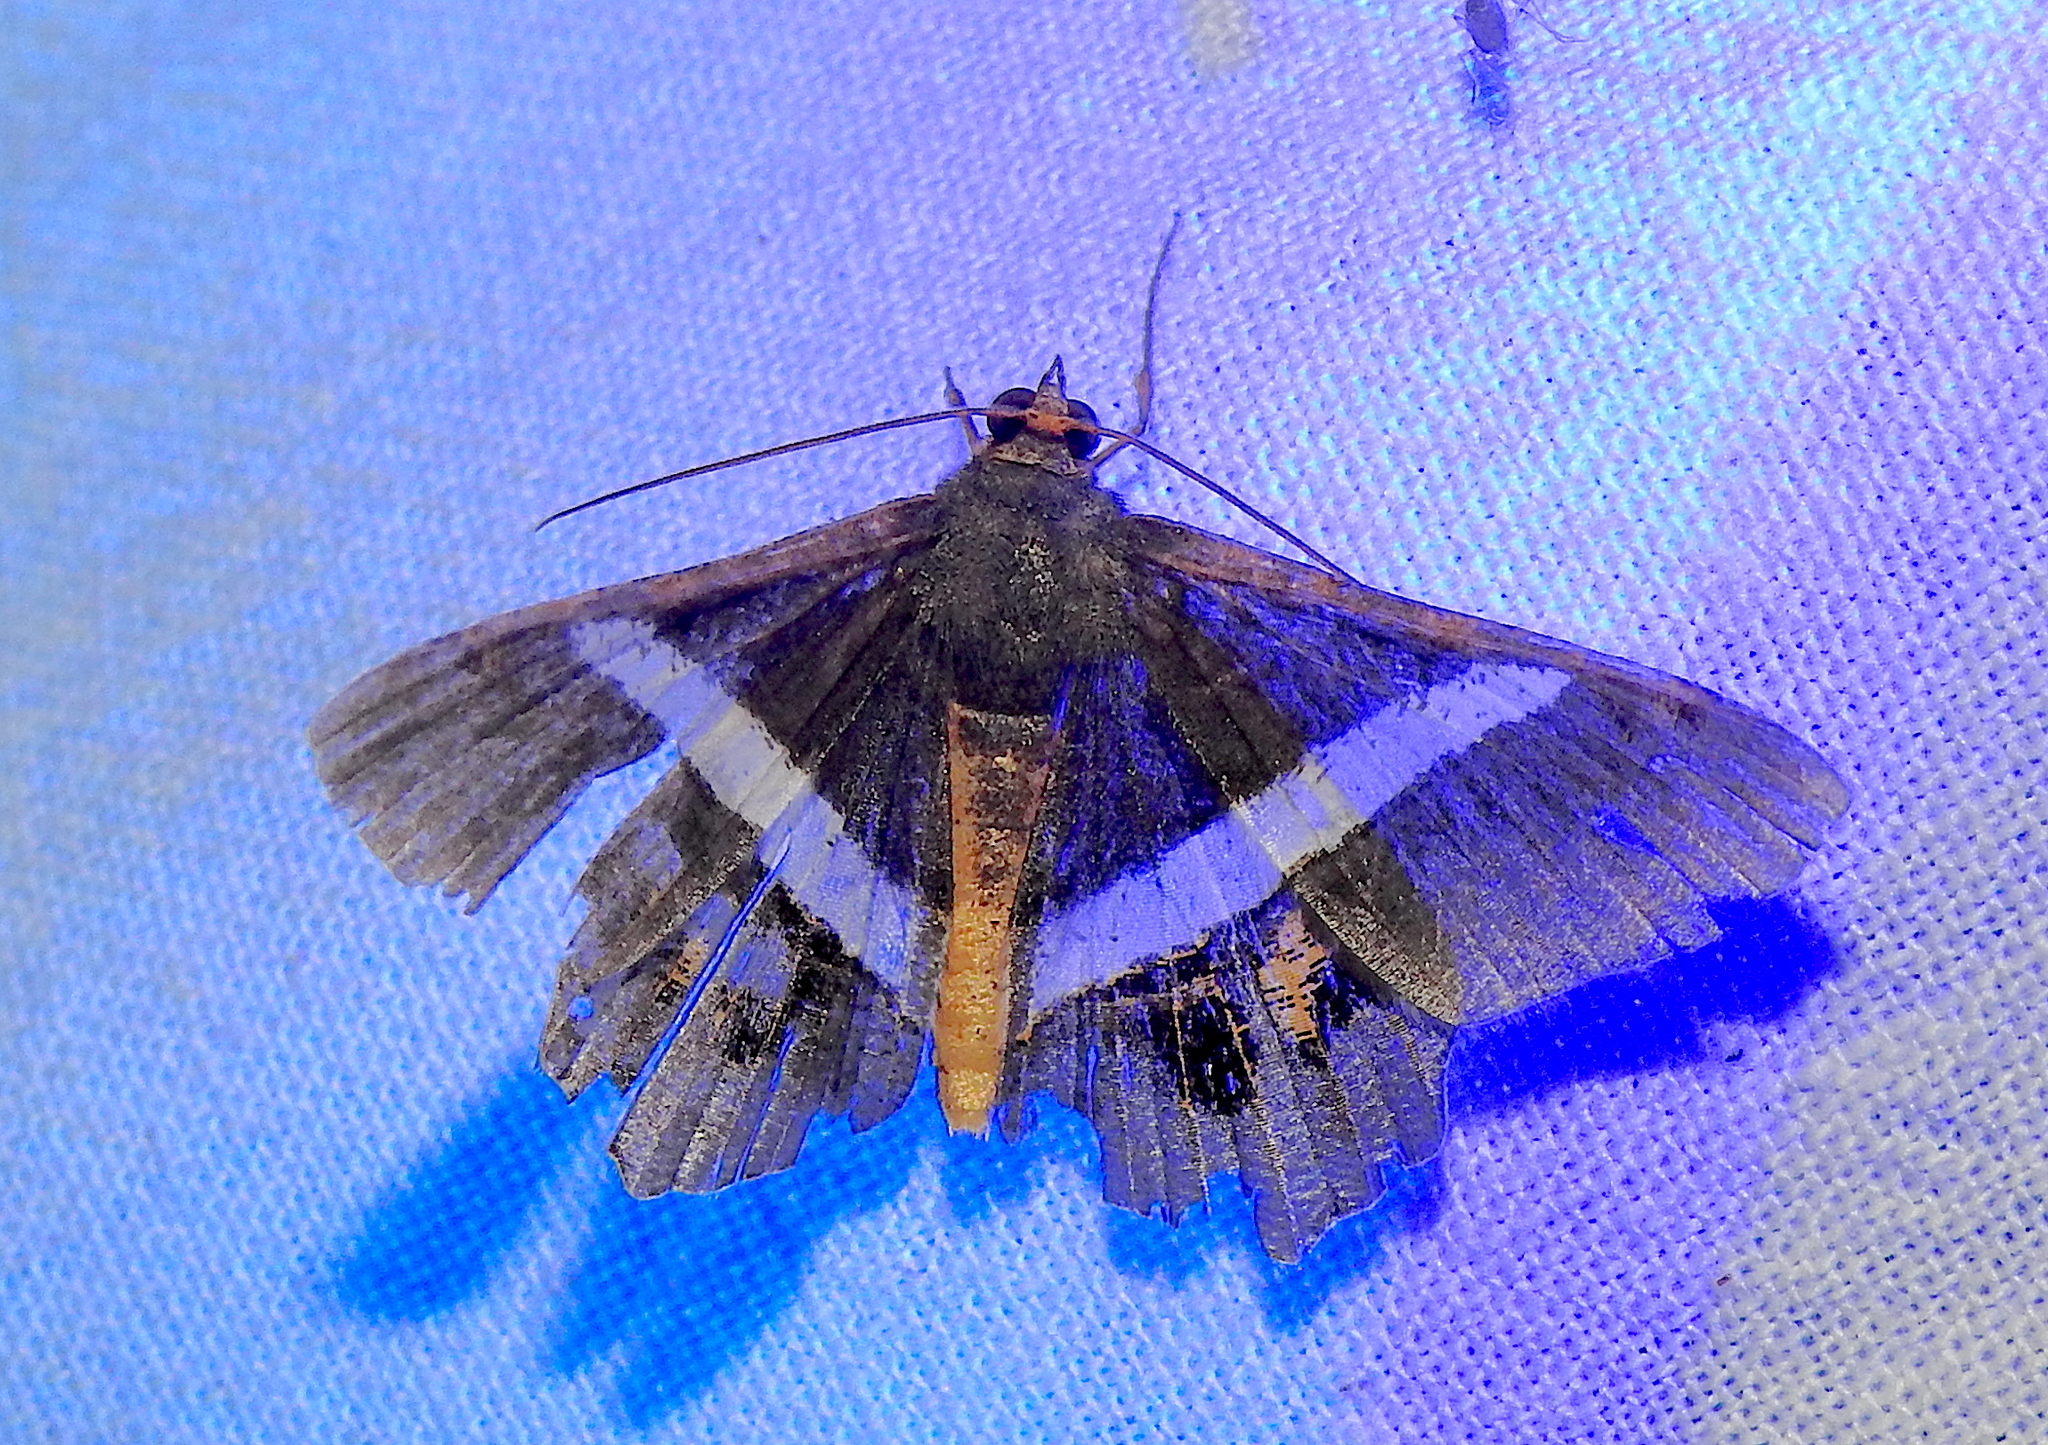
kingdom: Animalia
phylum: Arthropoda
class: Insecta
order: Lepidoptera
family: Geometridae
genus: Chiasmia
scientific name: Chiasmia eleonora
